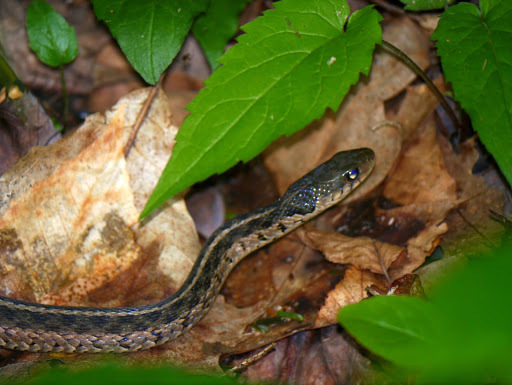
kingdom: Animalia
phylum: Chordata
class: Squamata
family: Colubridae
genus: Thamnophis
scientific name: Thamnophis sirtalis
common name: Common garter snake
